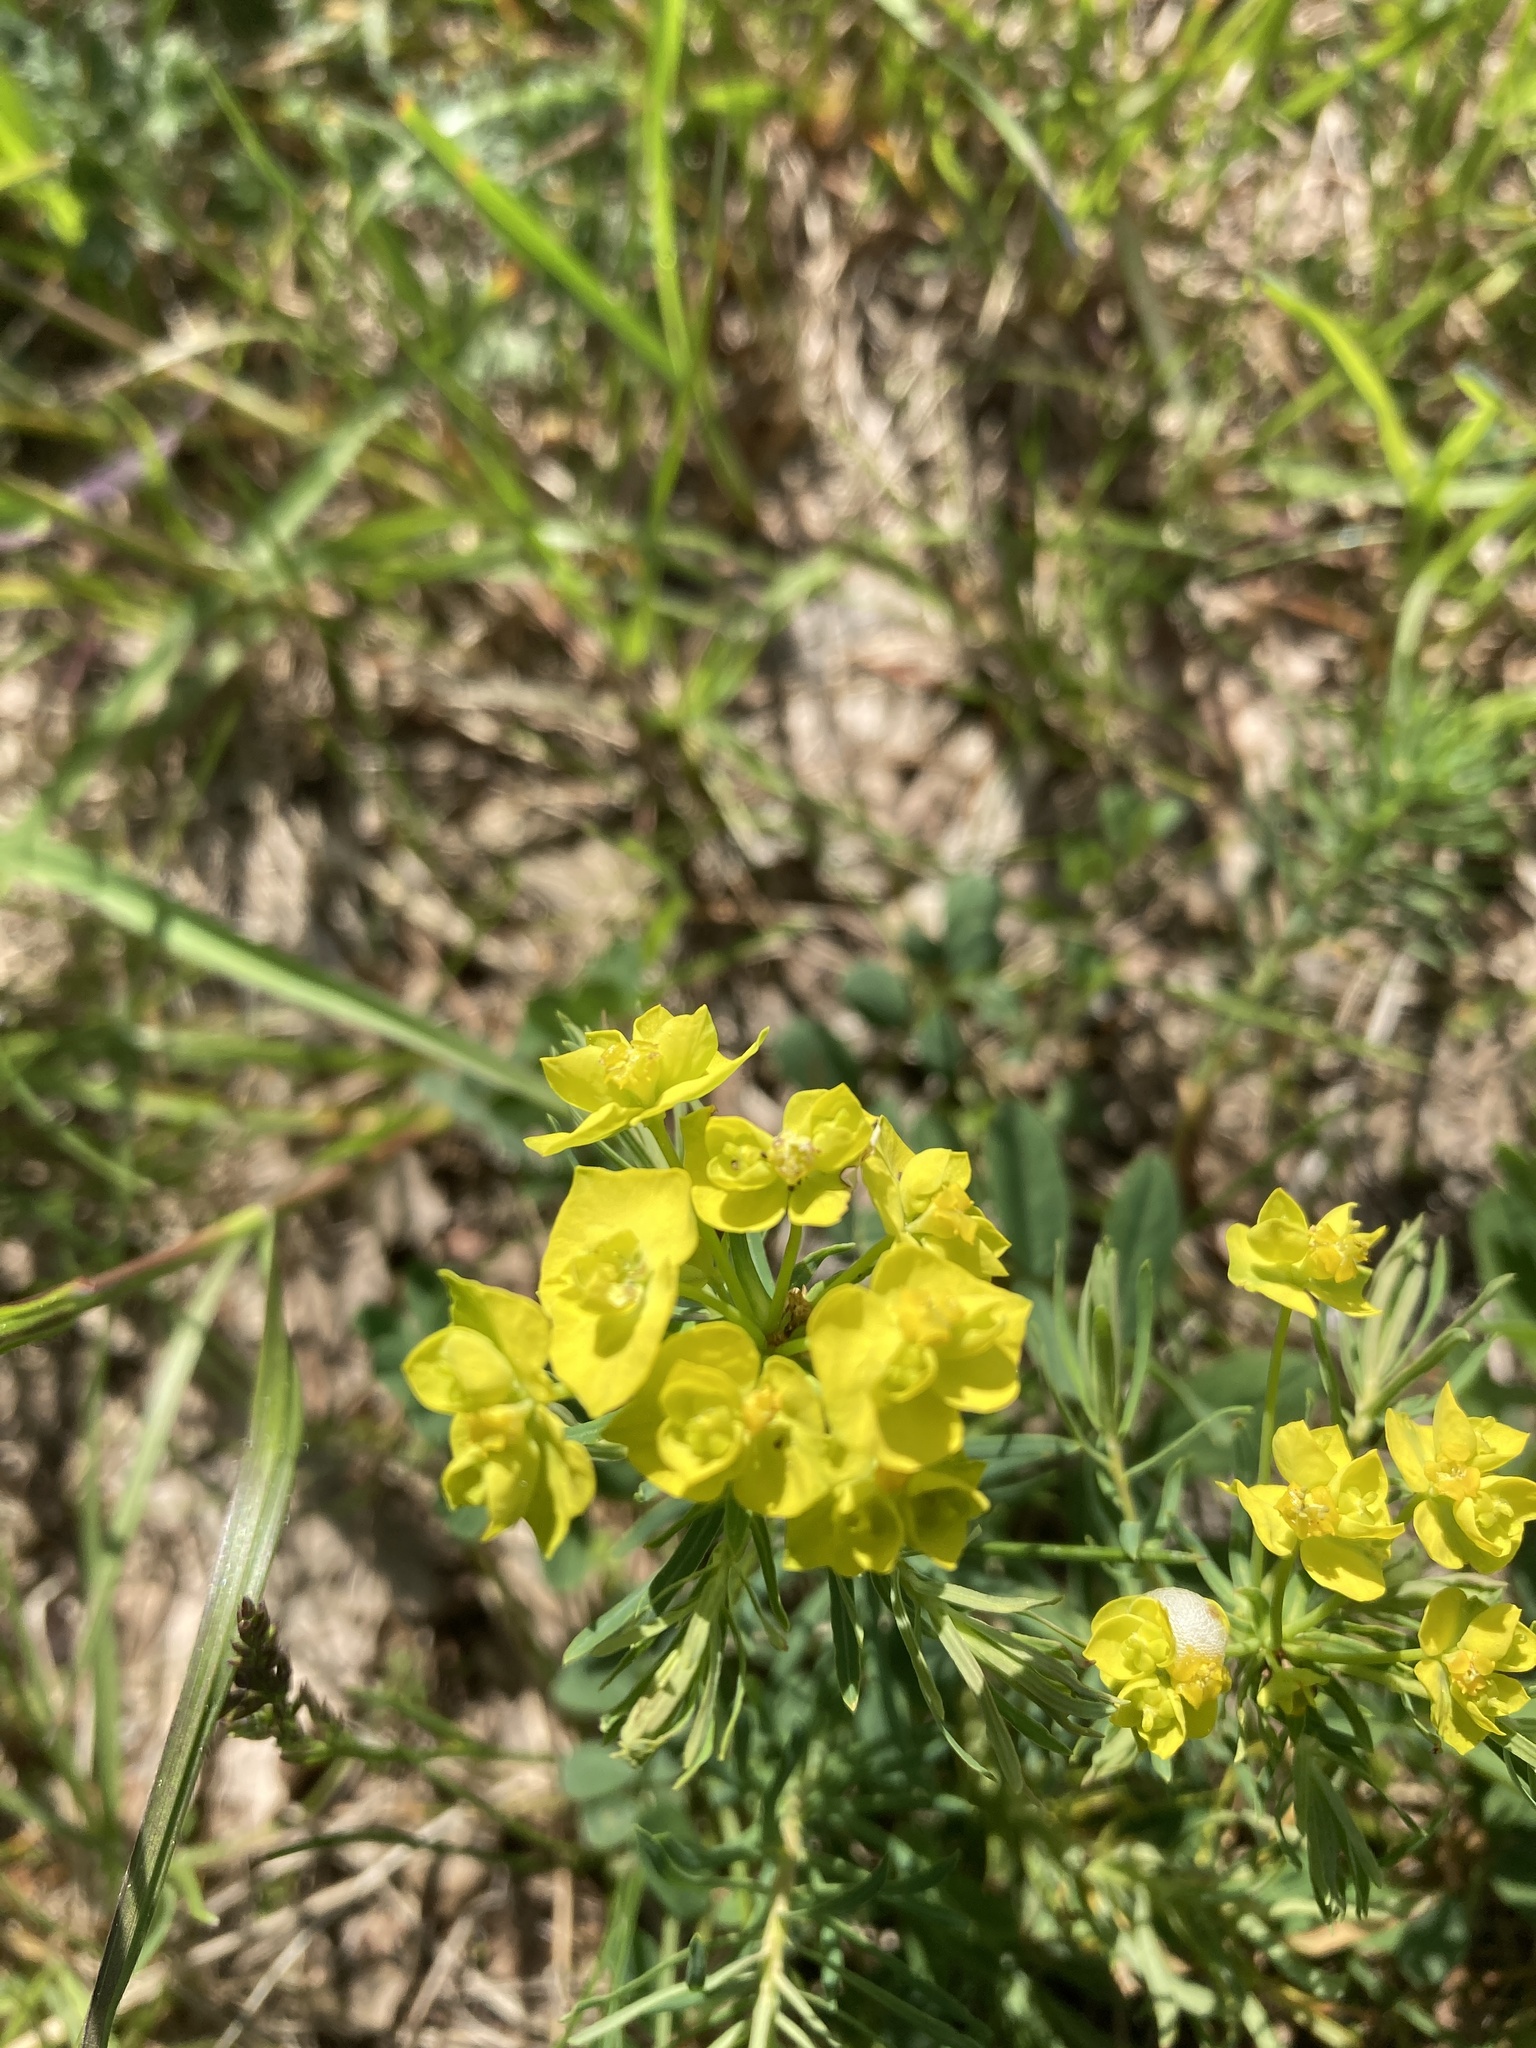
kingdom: Plantae
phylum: Tracheophyta
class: Magnoliopsida
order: Malpighiales
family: Euphorbiaceae
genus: Euphorbia
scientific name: Euphorbia cyparissias
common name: Cypress spurge
